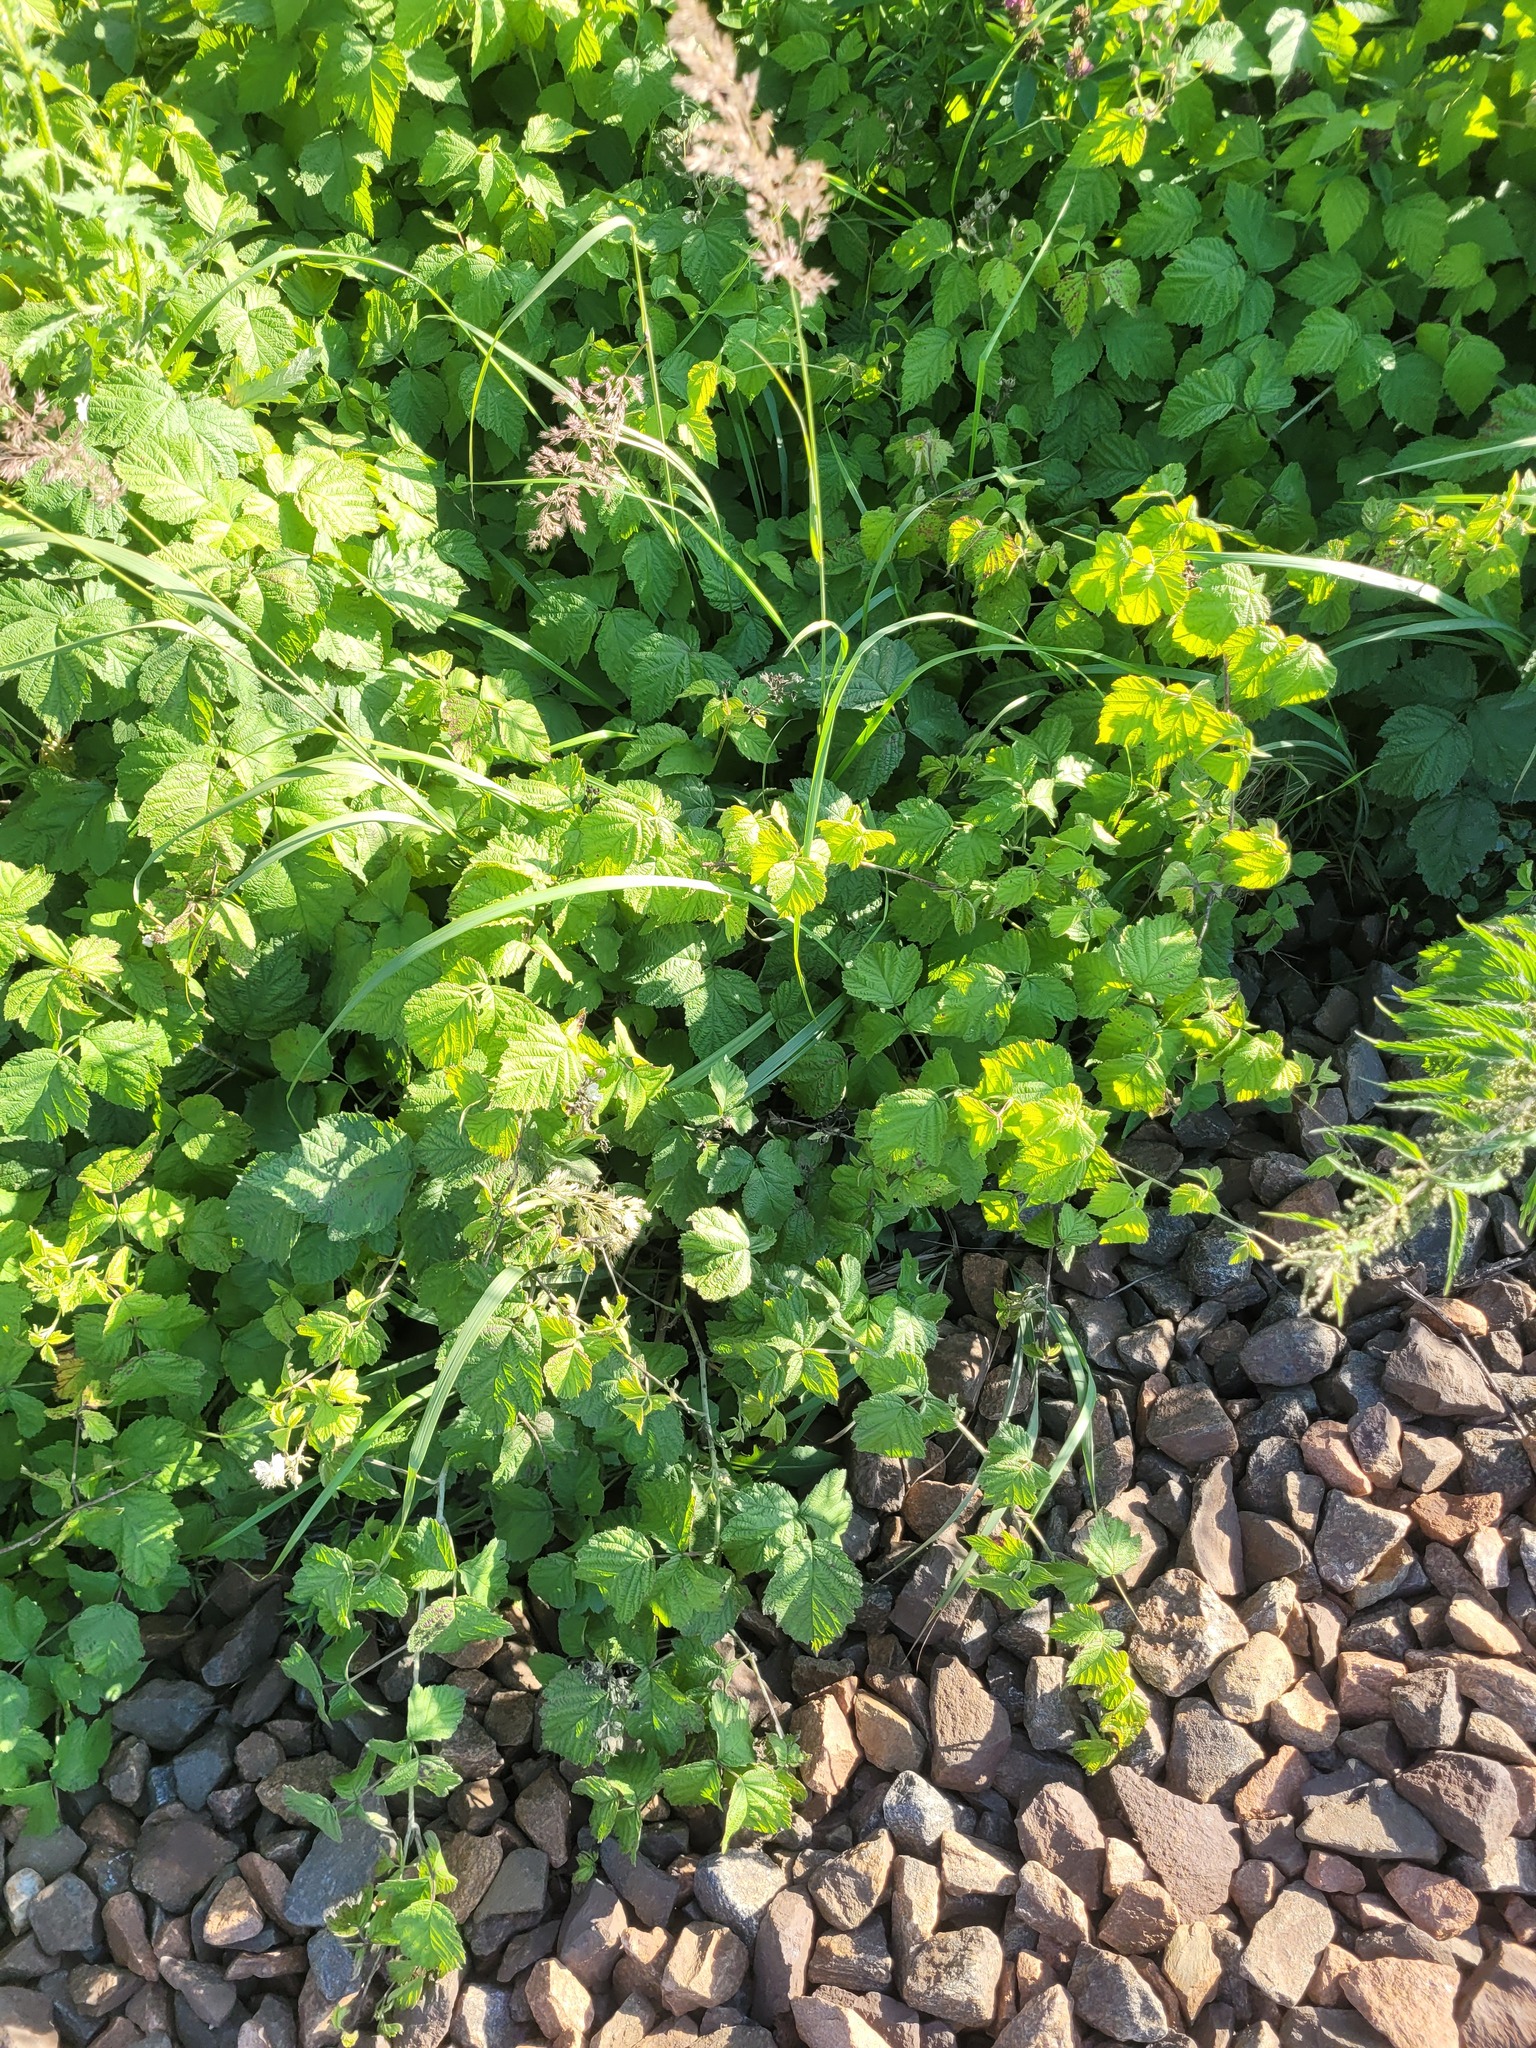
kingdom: Plantae
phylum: Tracheophyta
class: Magnoliopsida
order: Rosales
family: Rosaceae
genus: Rubus
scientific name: Rubus caesius
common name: Dewberry
